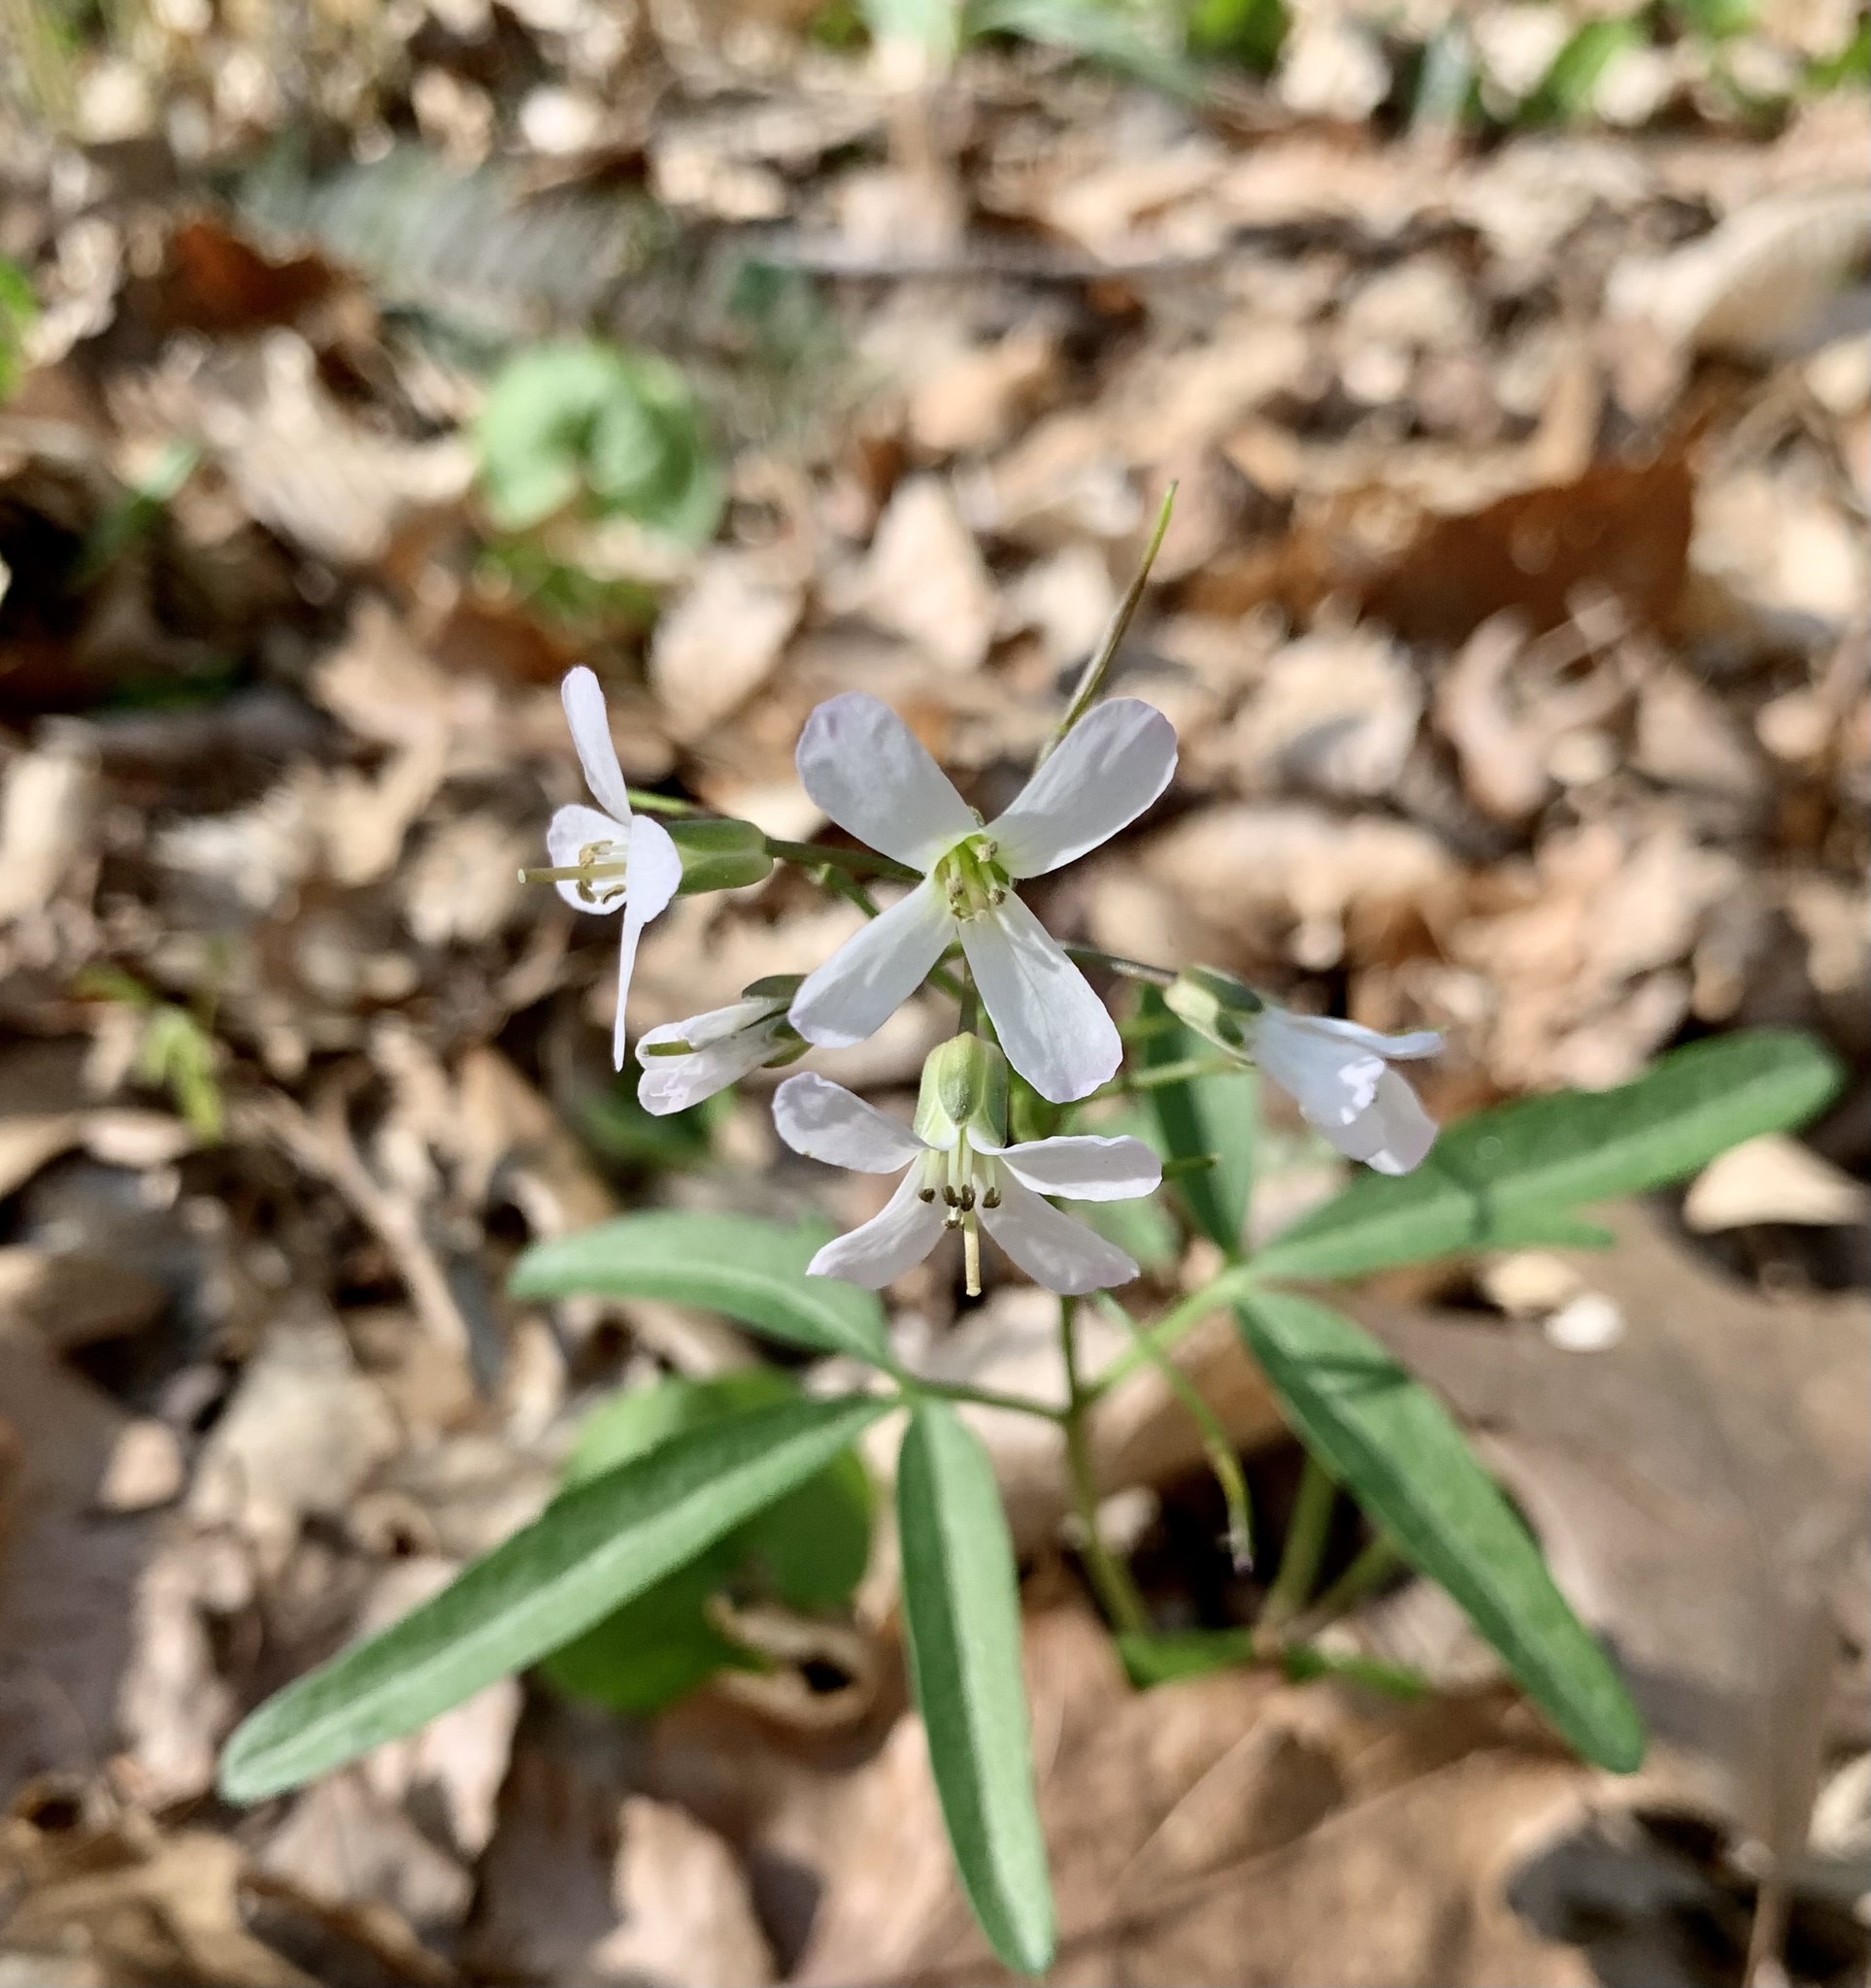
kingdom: Plantae
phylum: Tracheophyta
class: Magnoliopsida
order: Brassicales
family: Brassicaceae
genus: Cardamine
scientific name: Cardamine angustata
